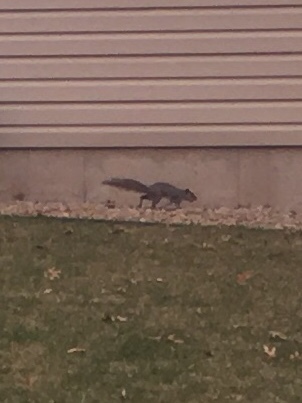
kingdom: Animalia
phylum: Chordata
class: Mammalia
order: Rodentia
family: Sciuridae
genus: Sciurus
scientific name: Sciurus carolinensis
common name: Eastern gray squirrel
